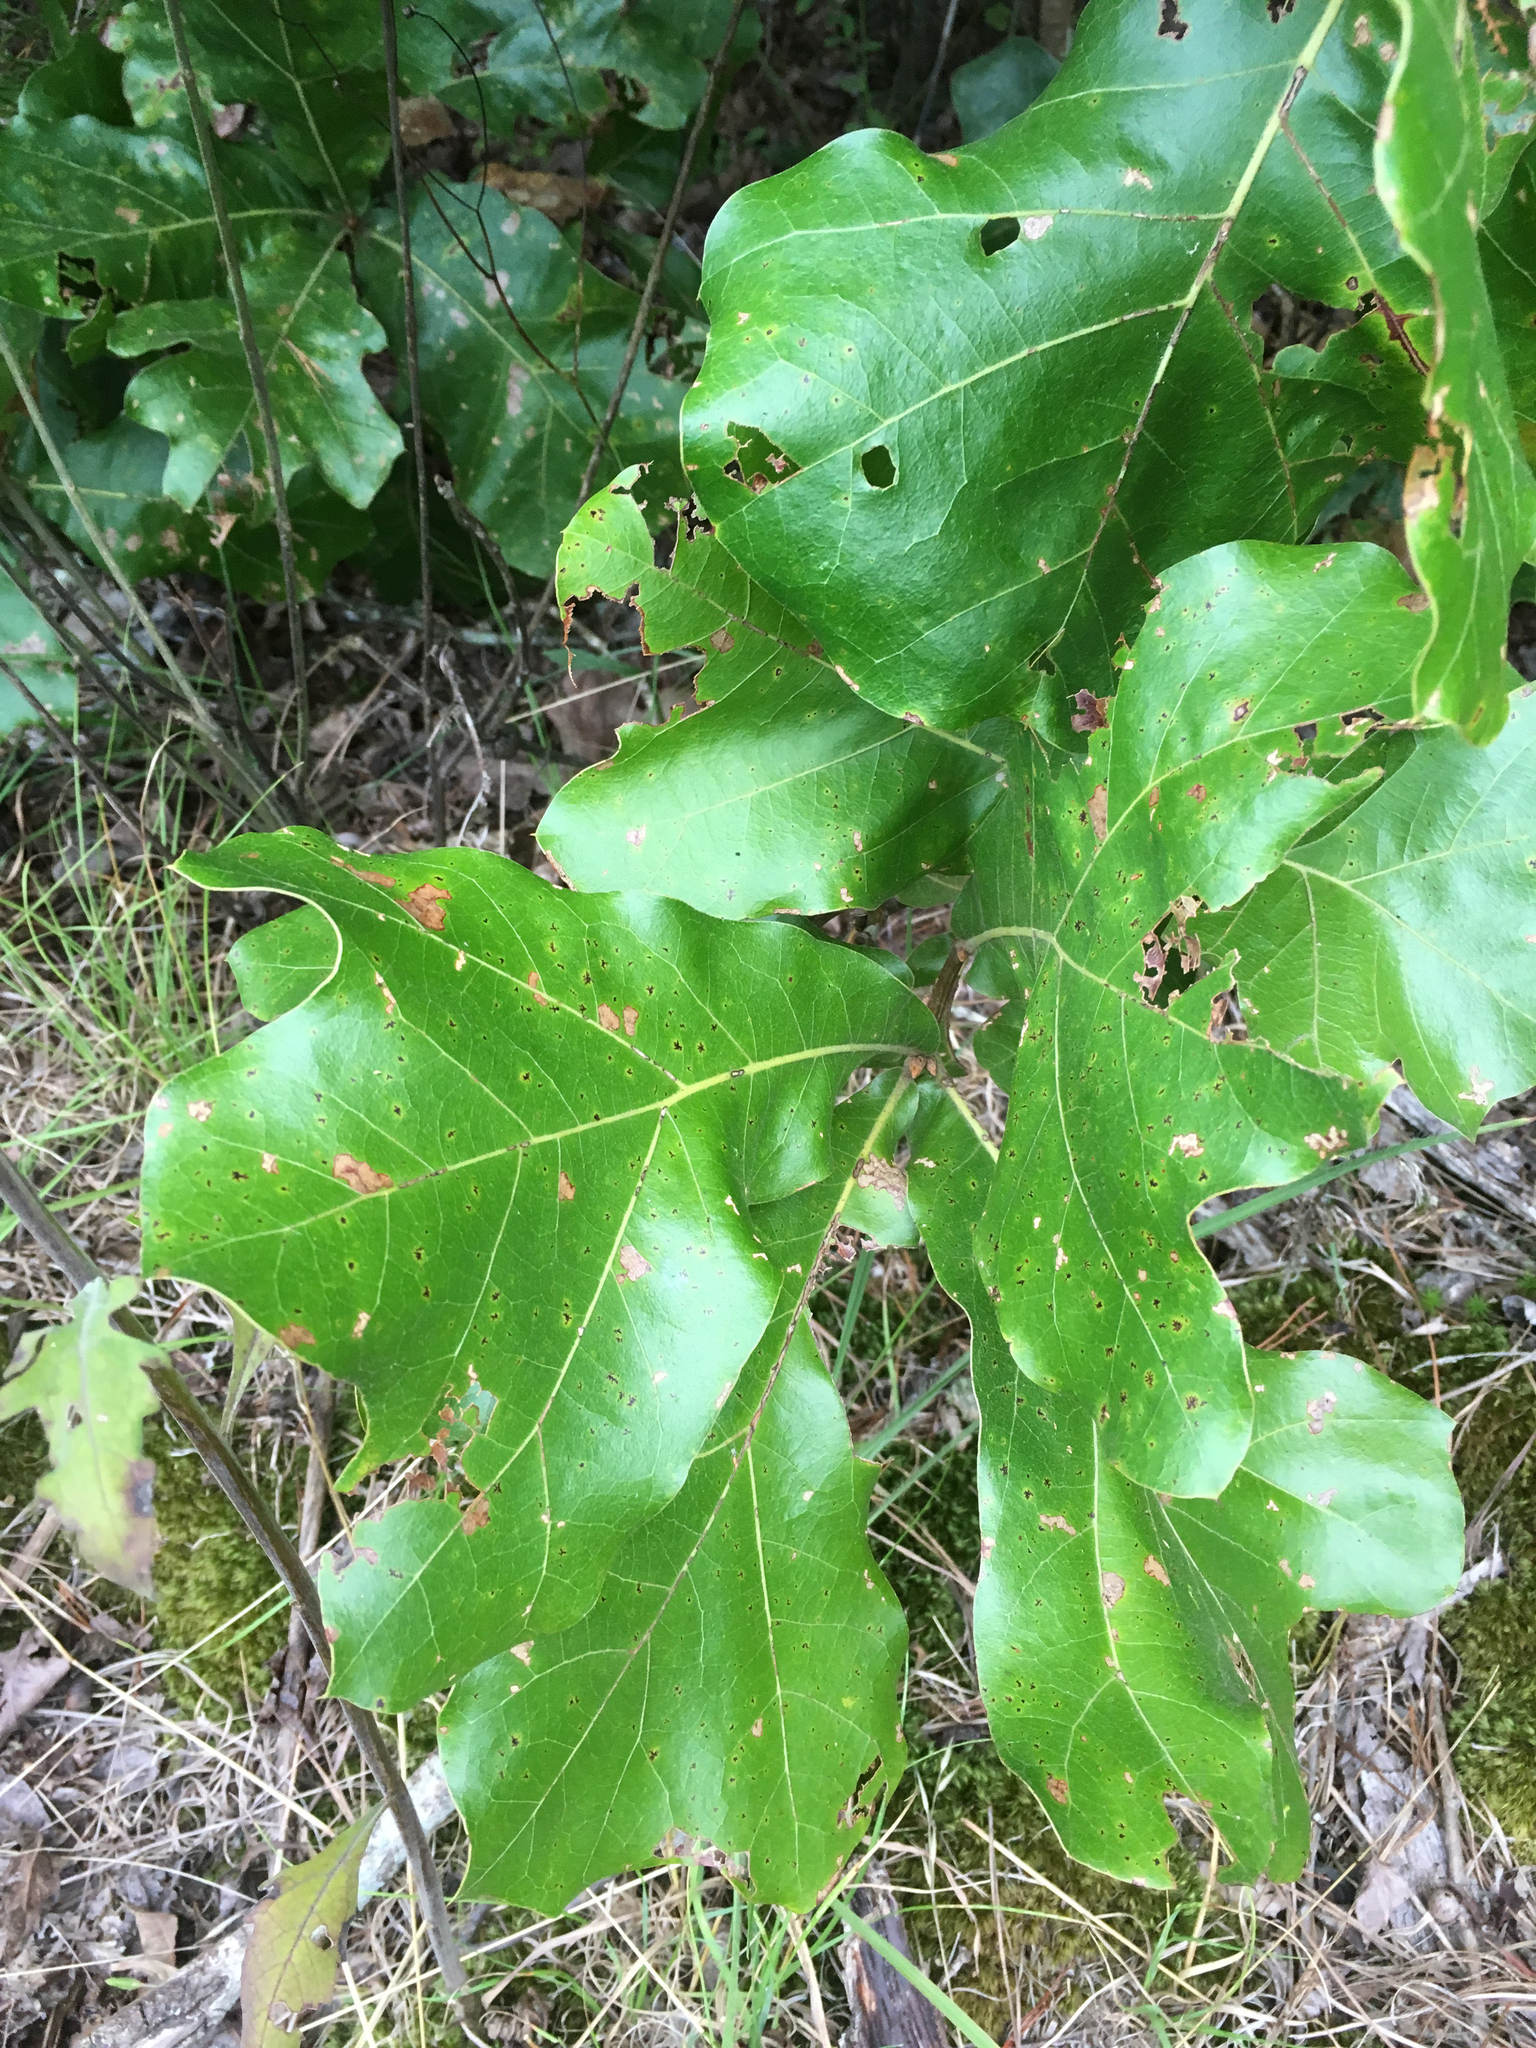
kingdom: Plantae
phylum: Tracheophyta
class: Magnoliopsida
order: Fagales
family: Fagaceae
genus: Quercus
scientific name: Quercus marilandica
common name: Blackjack oak
